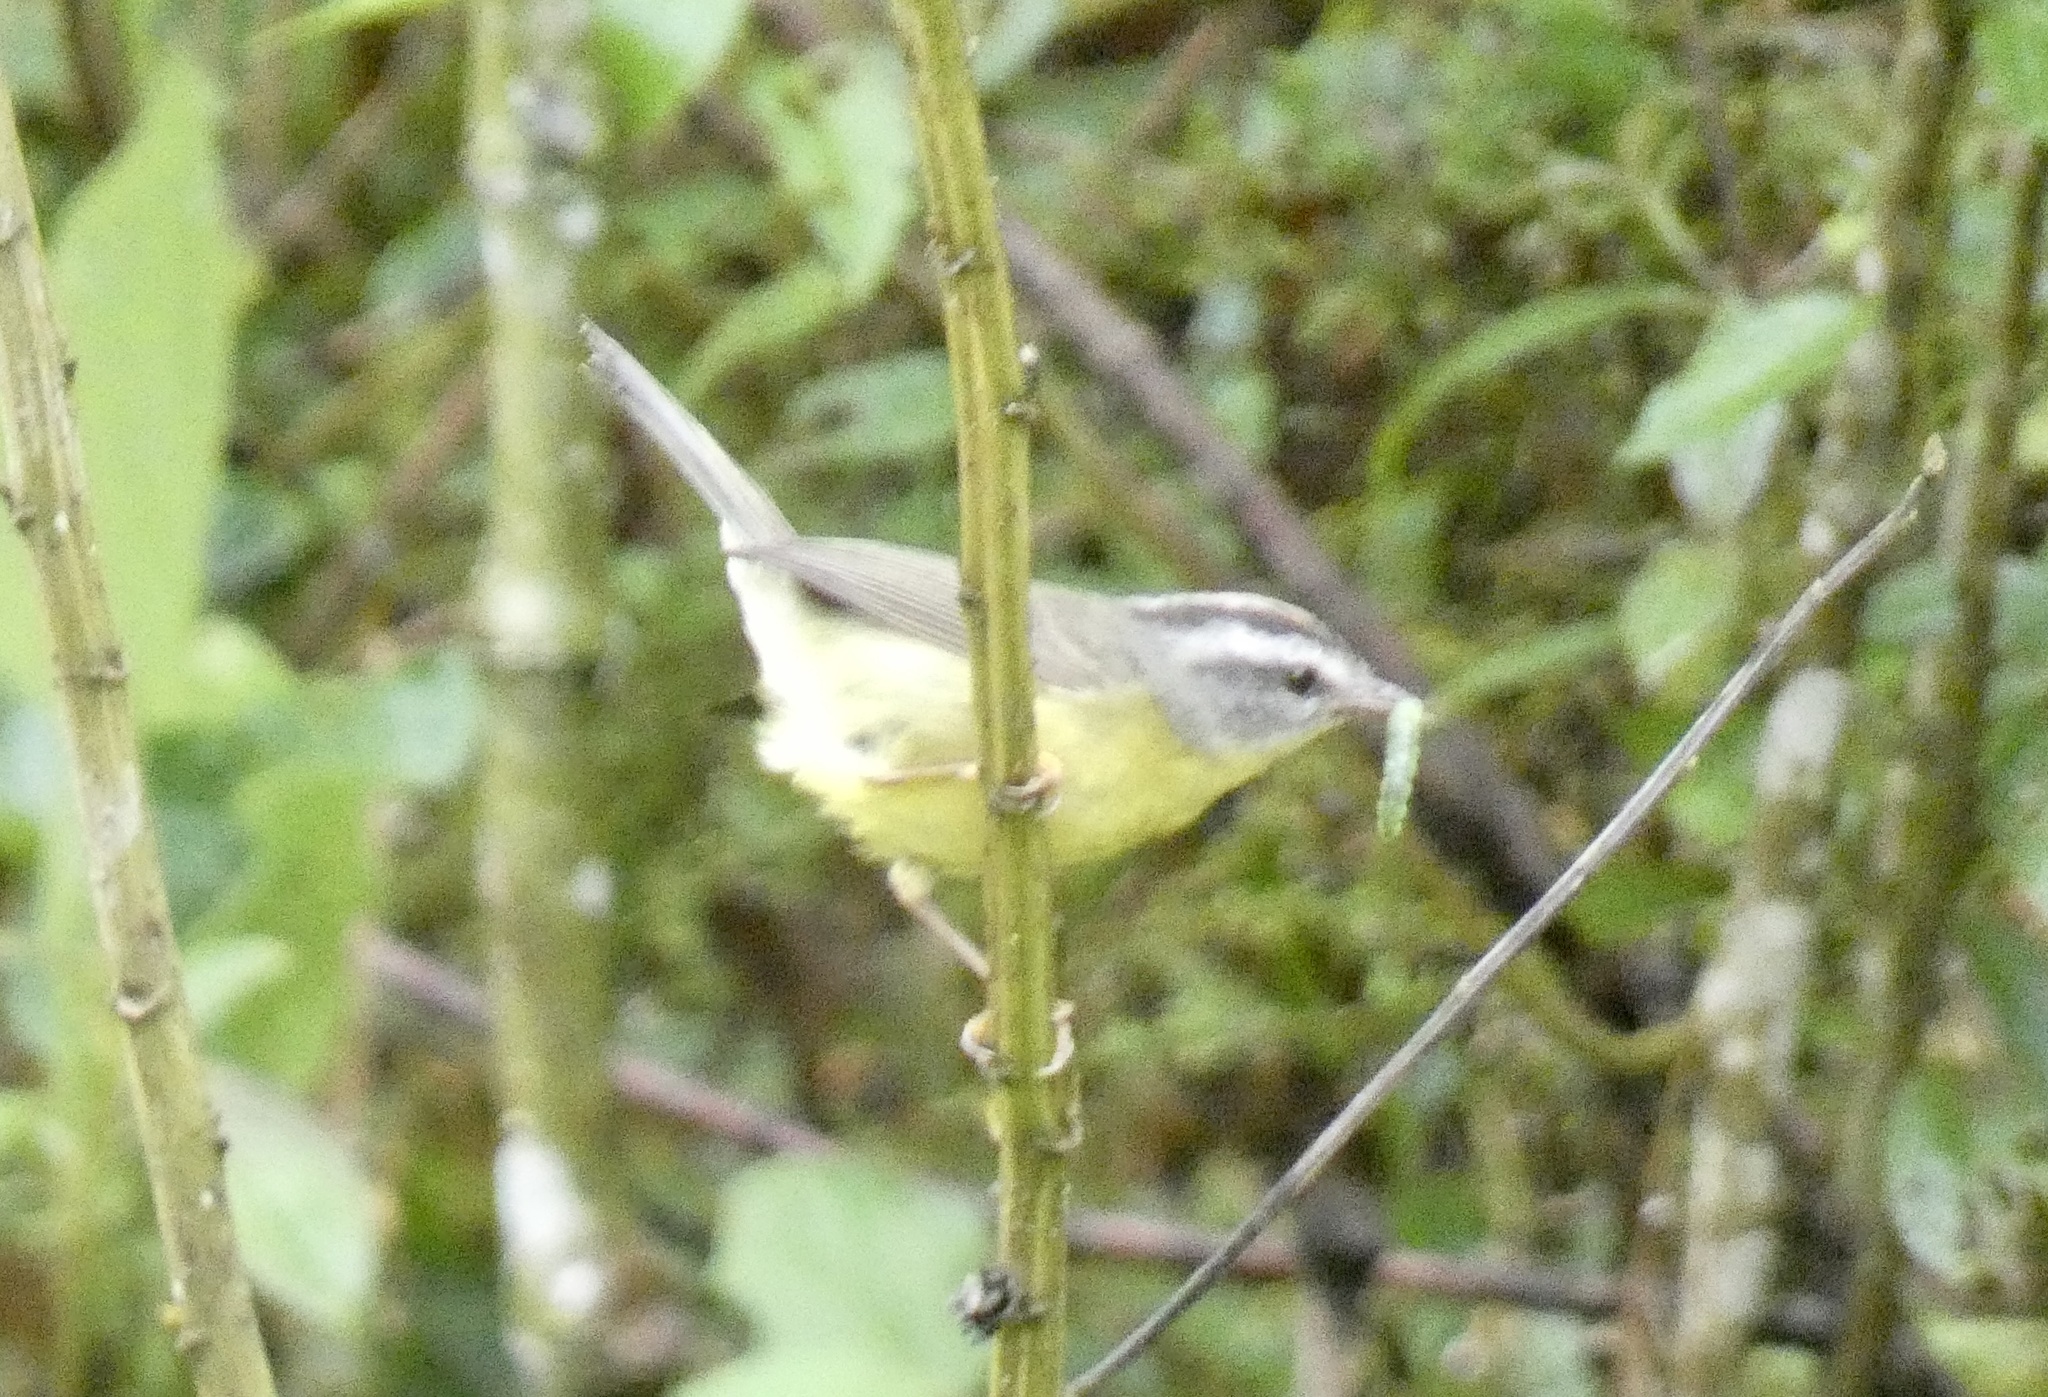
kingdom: Animalia
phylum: Chordata
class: Aves
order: Passeriformes
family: Parulidae
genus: Basileuterus
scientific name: Basileuterus culicivorus
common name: Golden-crowned warbler
